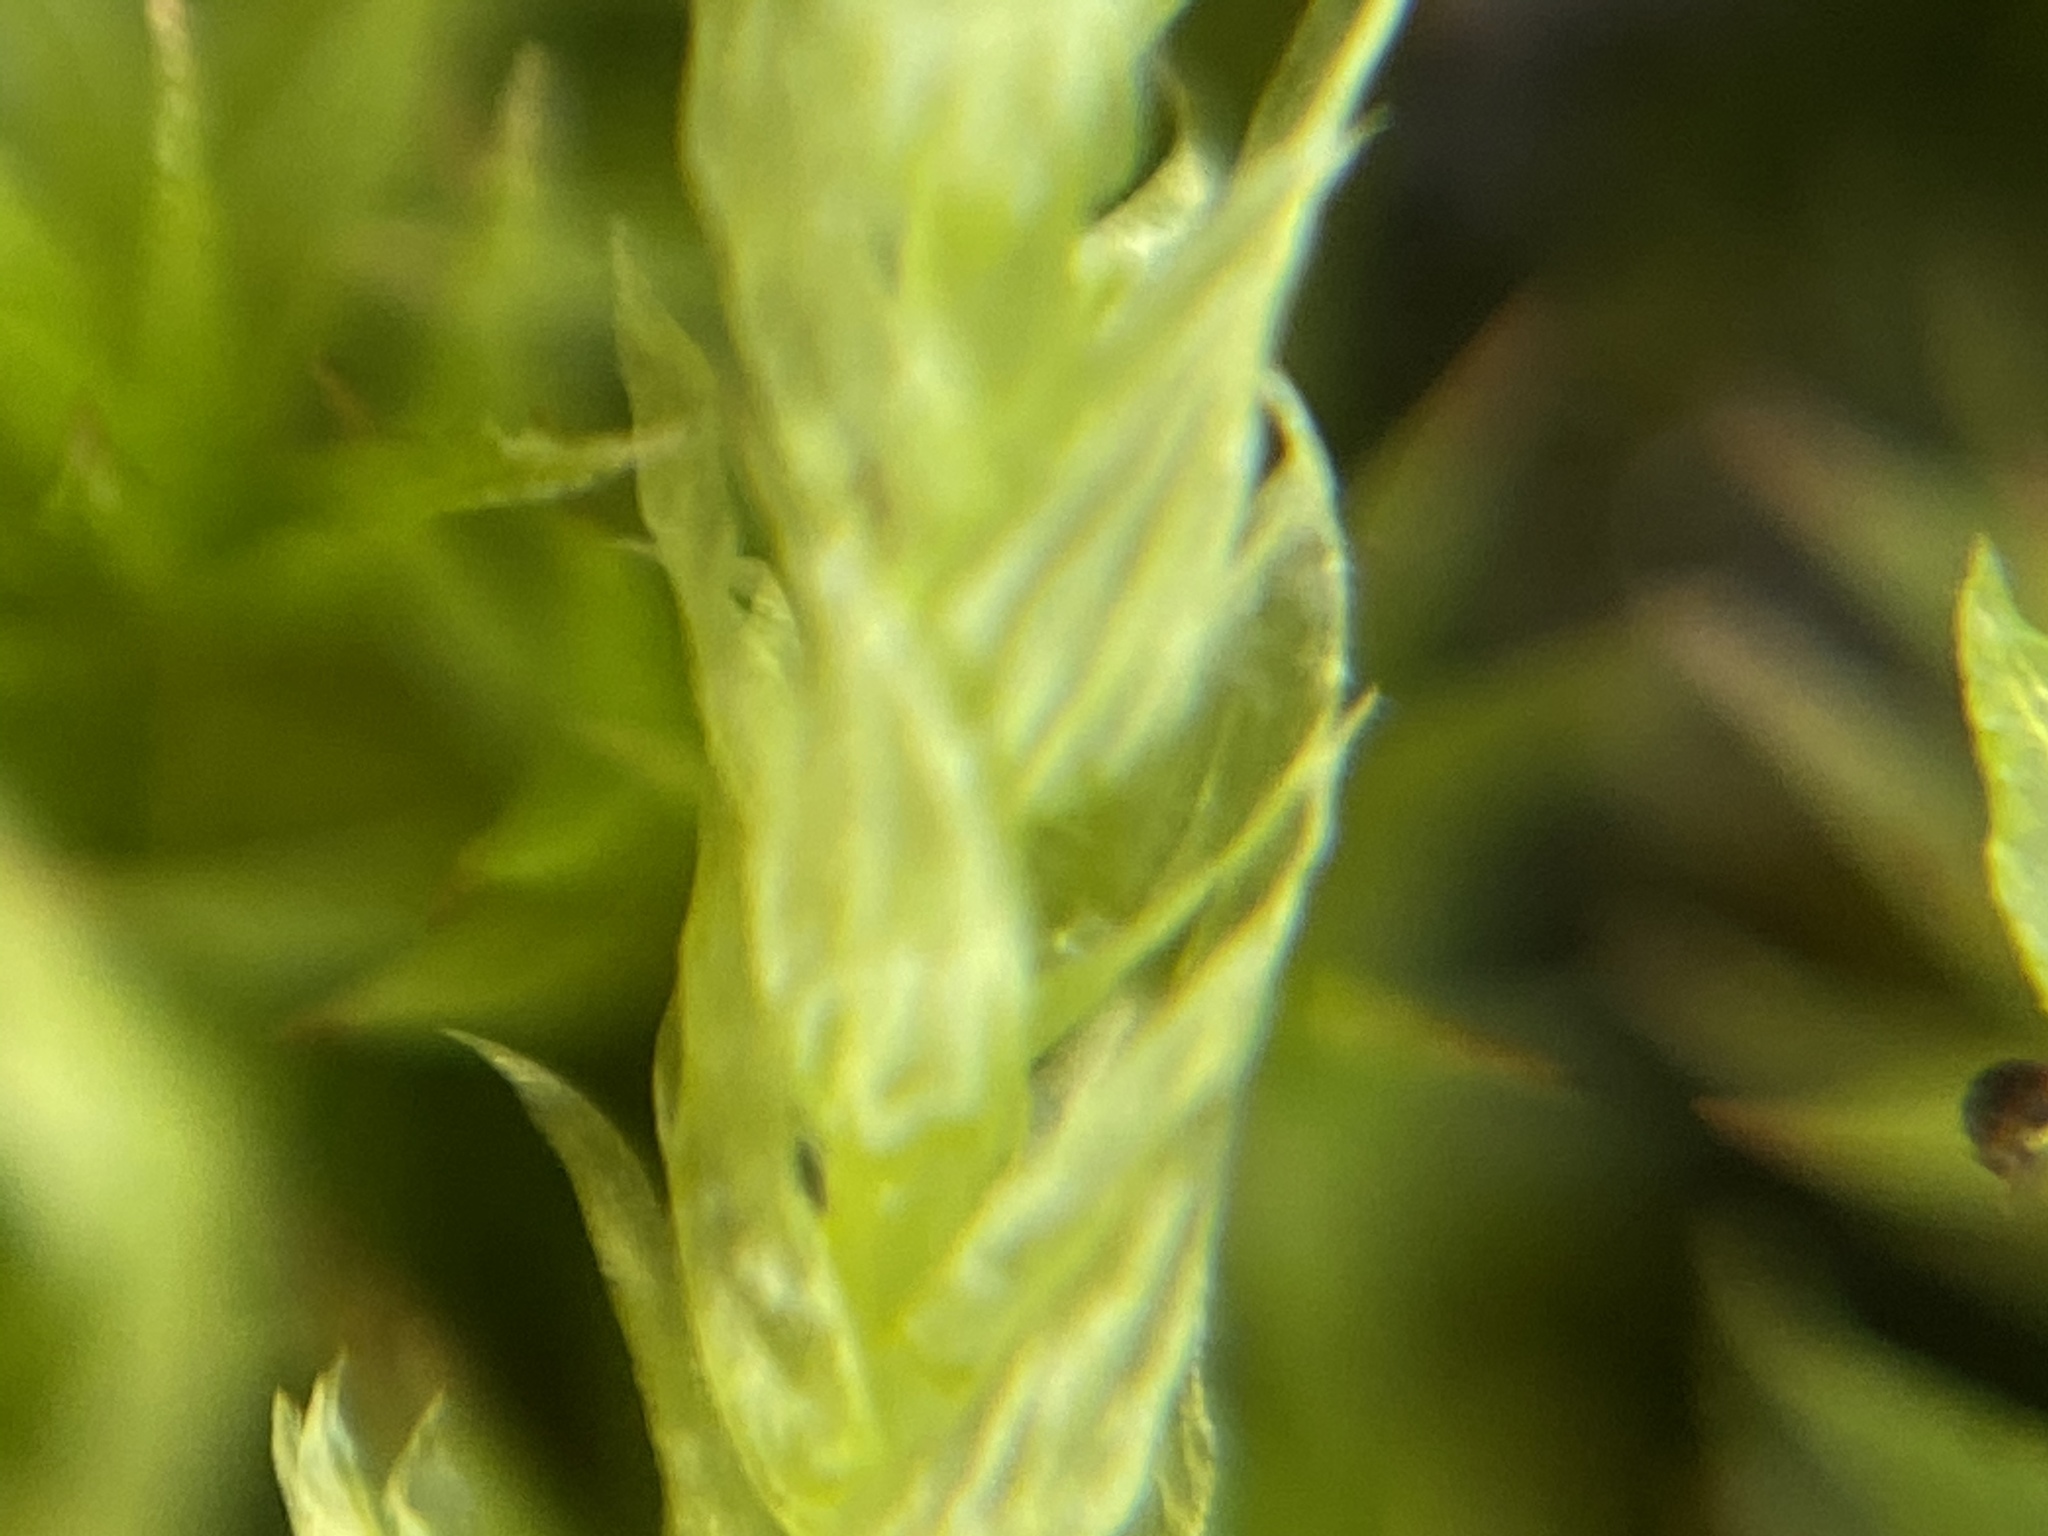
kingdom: Plantae
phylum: Bryophyta
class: Bryopsida
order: Hypnales
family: Hypnaceae
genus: Hypnum
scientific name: Hypnum cupressiforme
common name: Cypress-leaved plait-moss
